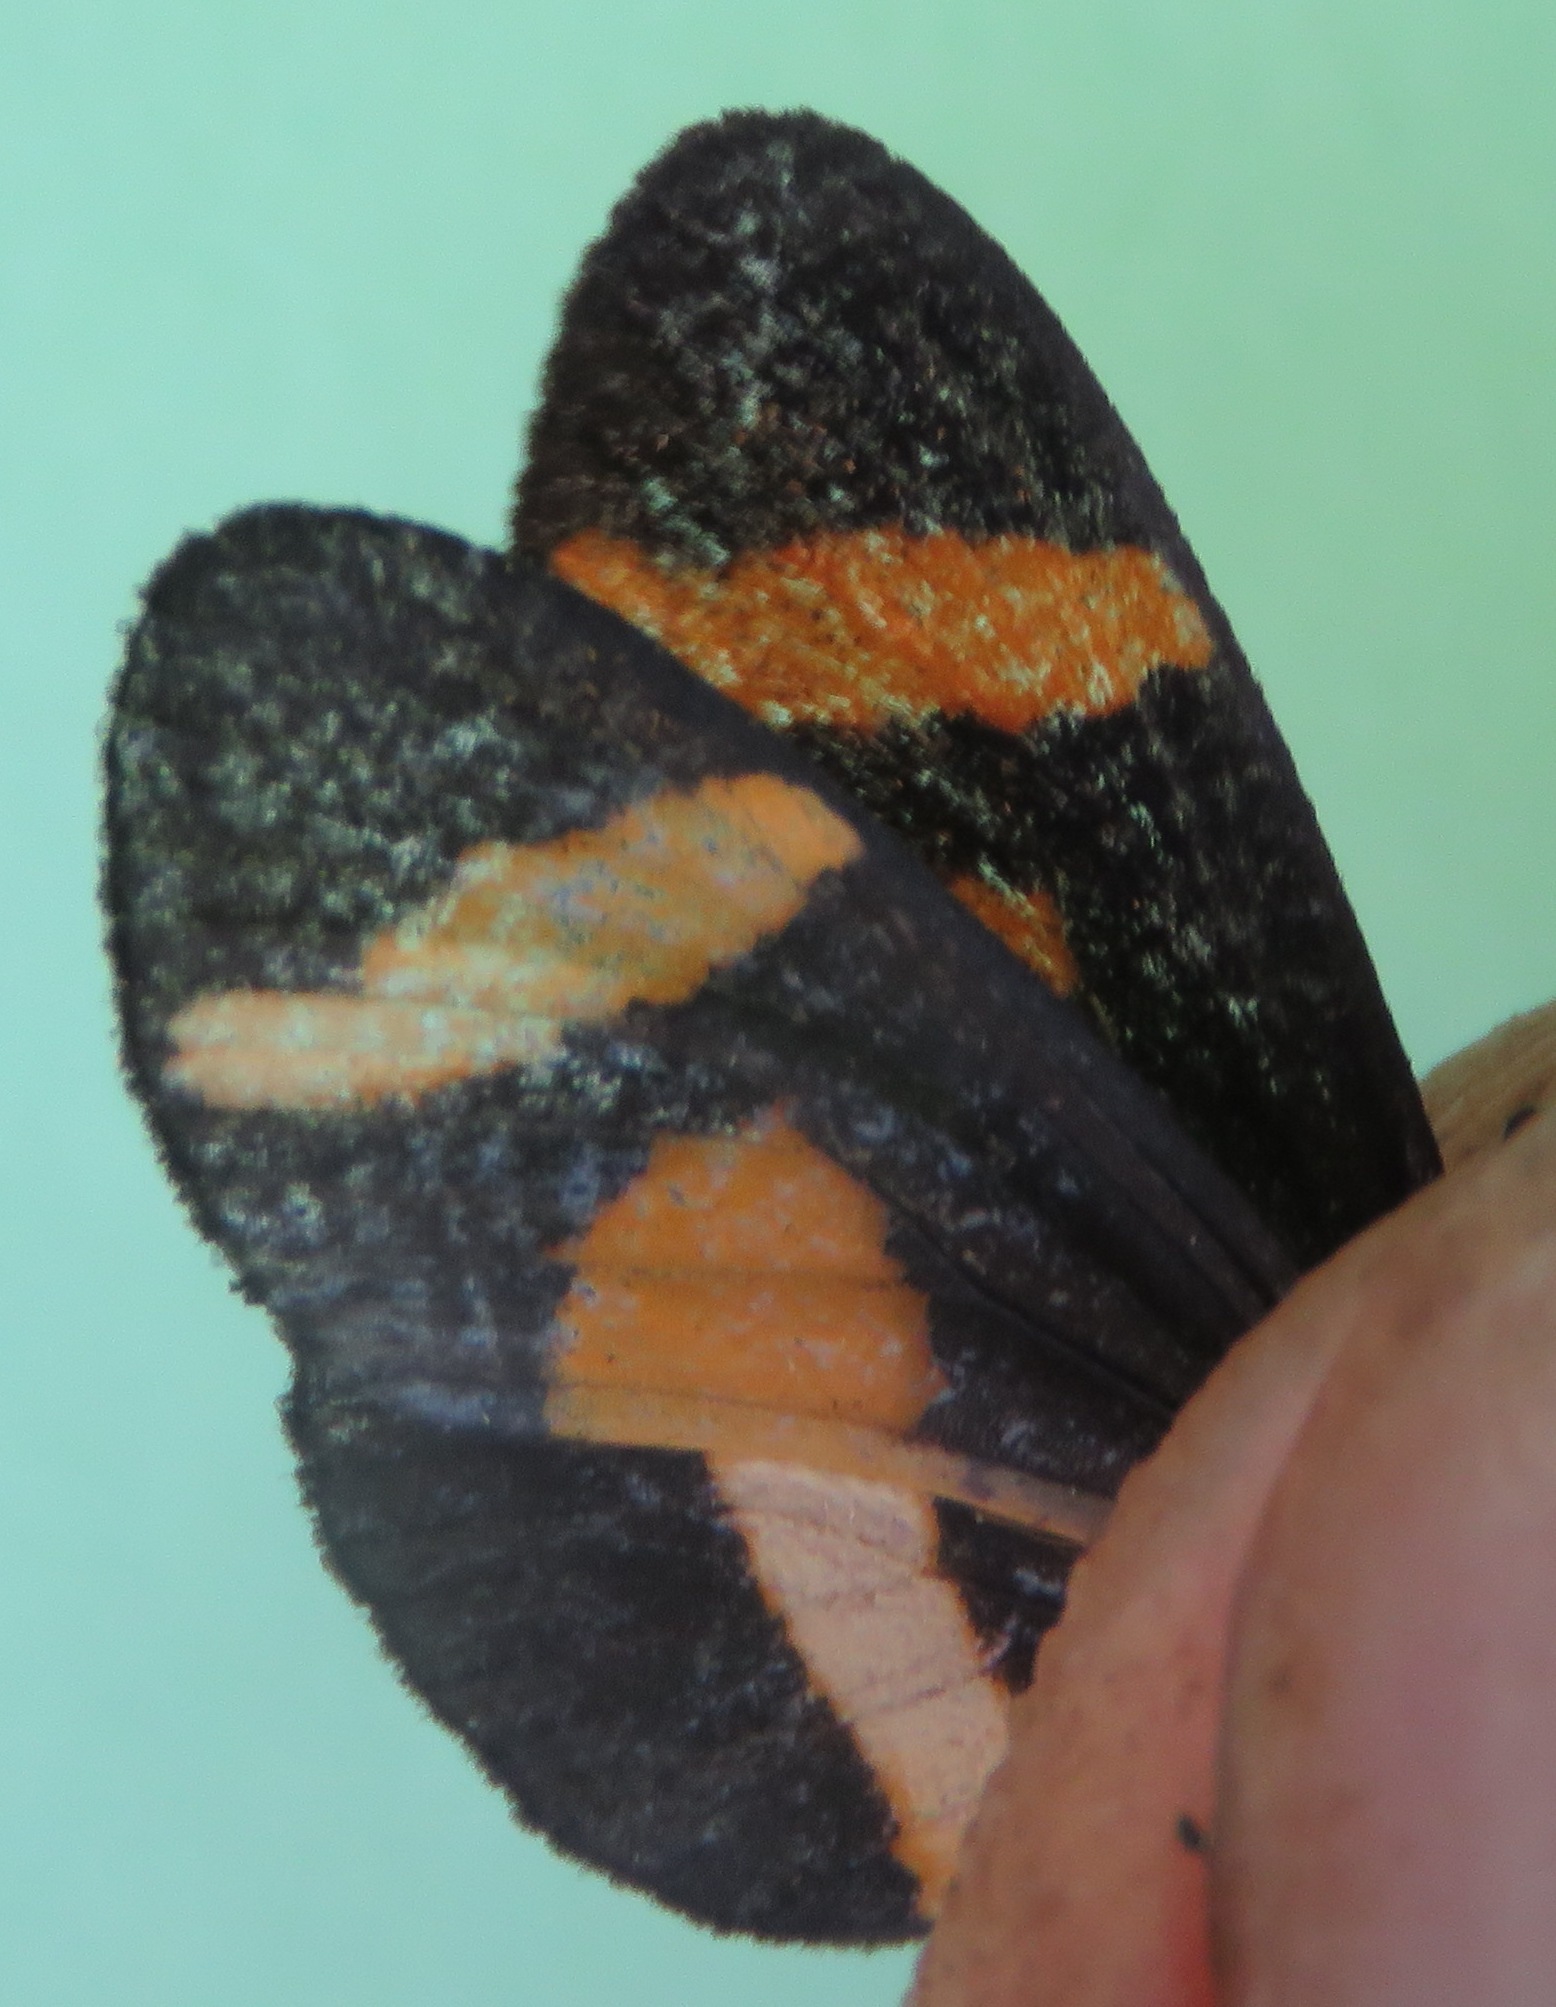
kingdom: Animalia
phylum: Arthropoda
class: Insecta
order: Lepidoptera
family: Nymphalidae
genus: Microtia
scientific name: Microtia elva
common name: Elf
